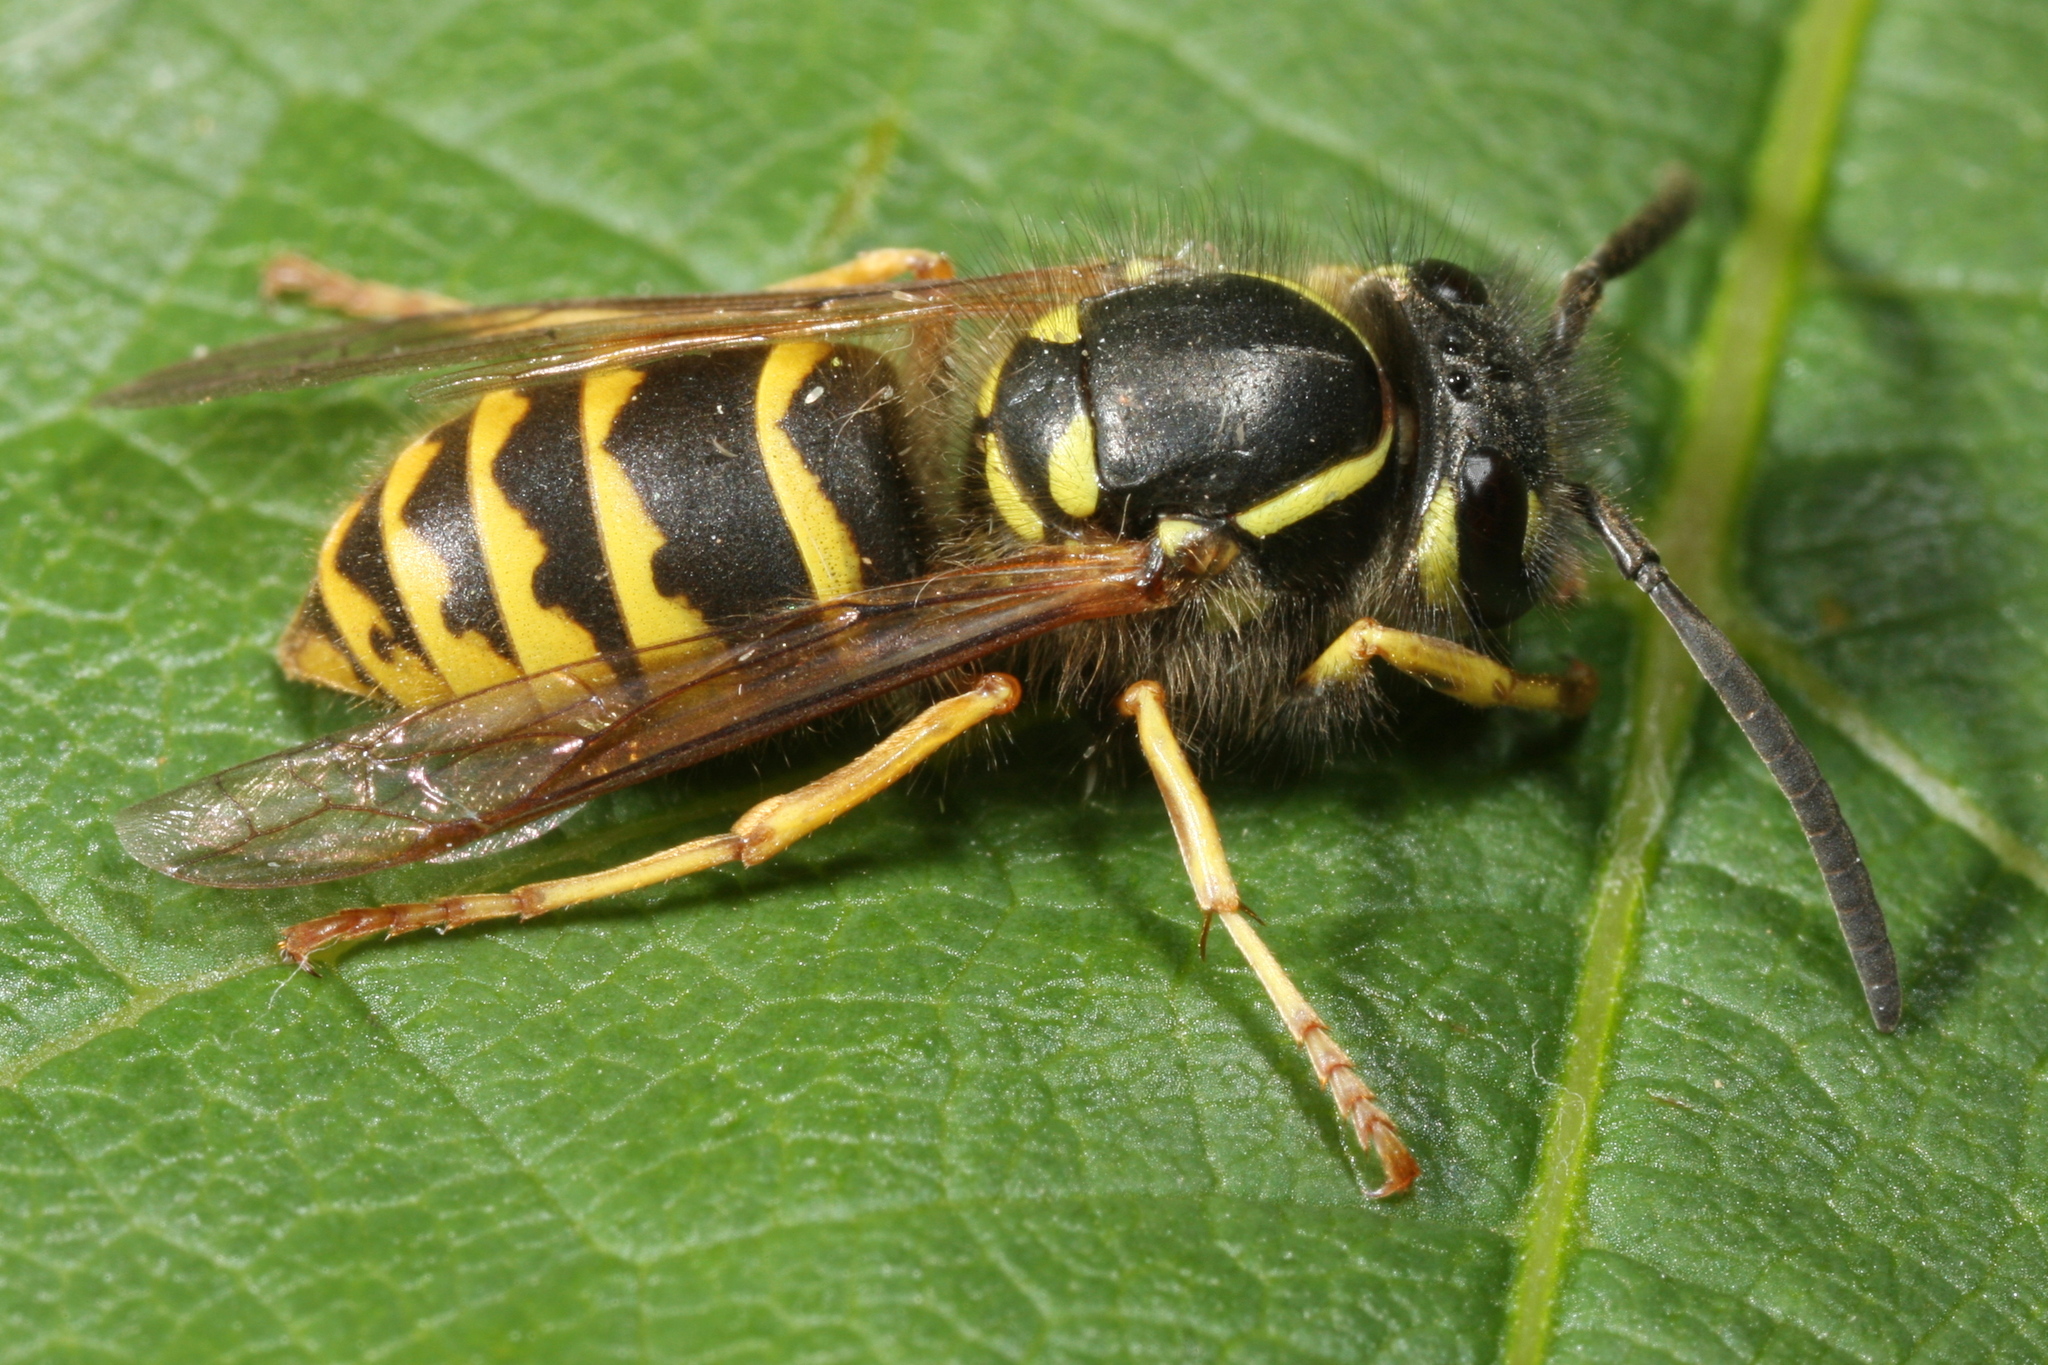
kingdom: Animalia
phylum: Arthropoda
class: Insecta
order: Hymenoptera
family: Vespidae
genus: Vespula
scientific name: Vespula vulgaris
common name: Common wasp
